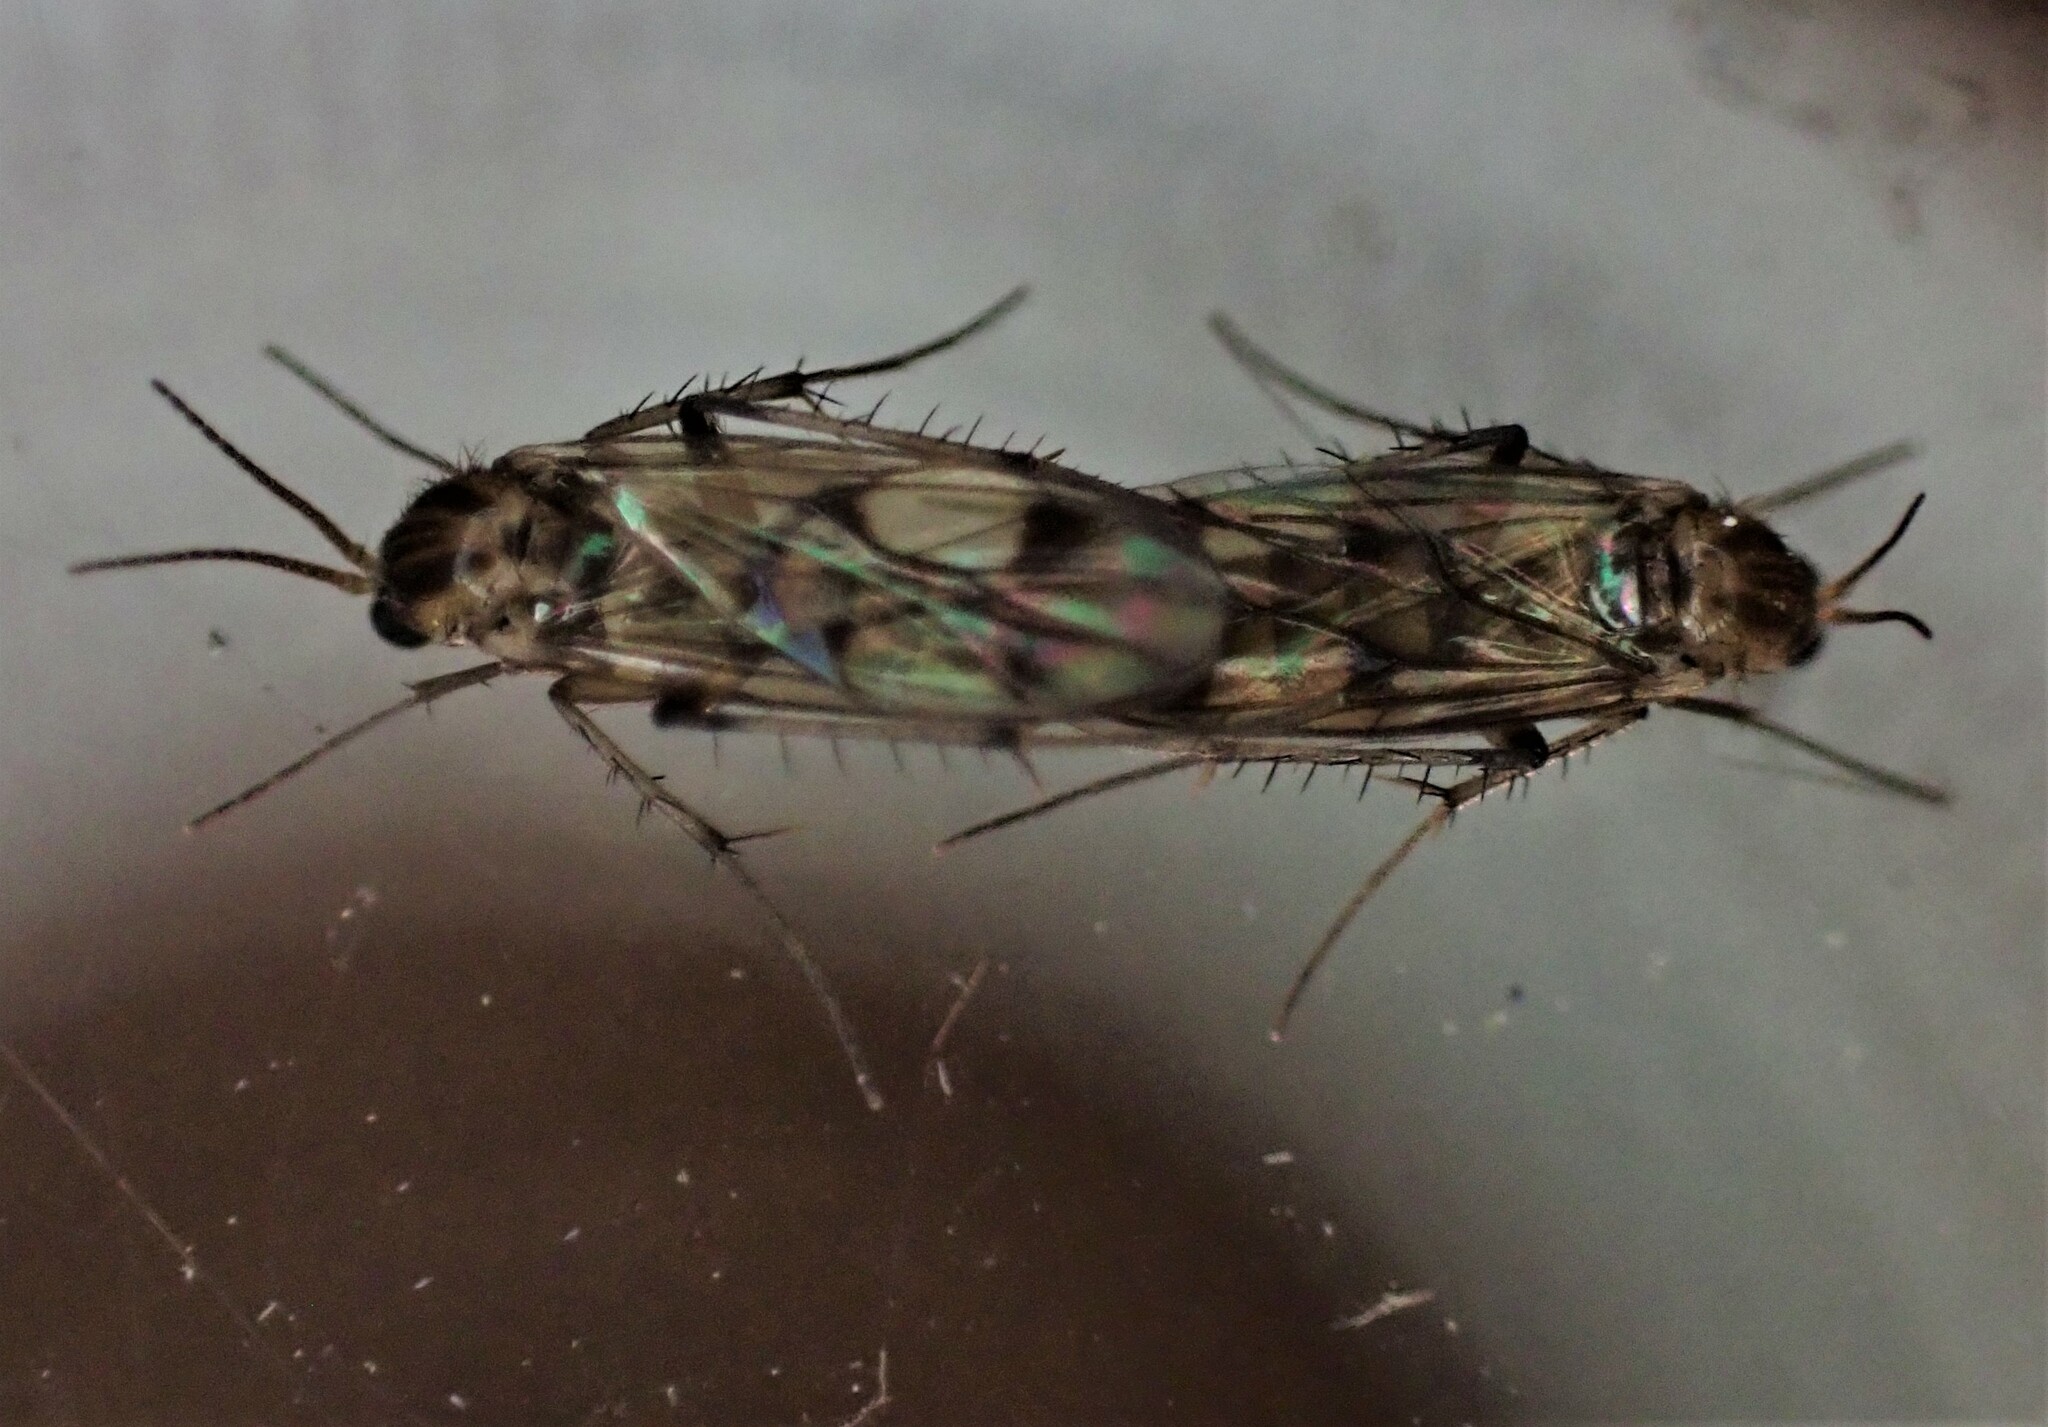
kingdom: Animalia
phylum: Arthropoda
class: Insecta
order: Diptera
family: Mycetophilidae
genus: Anomalomyia
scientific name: Anomalomyia guttata
